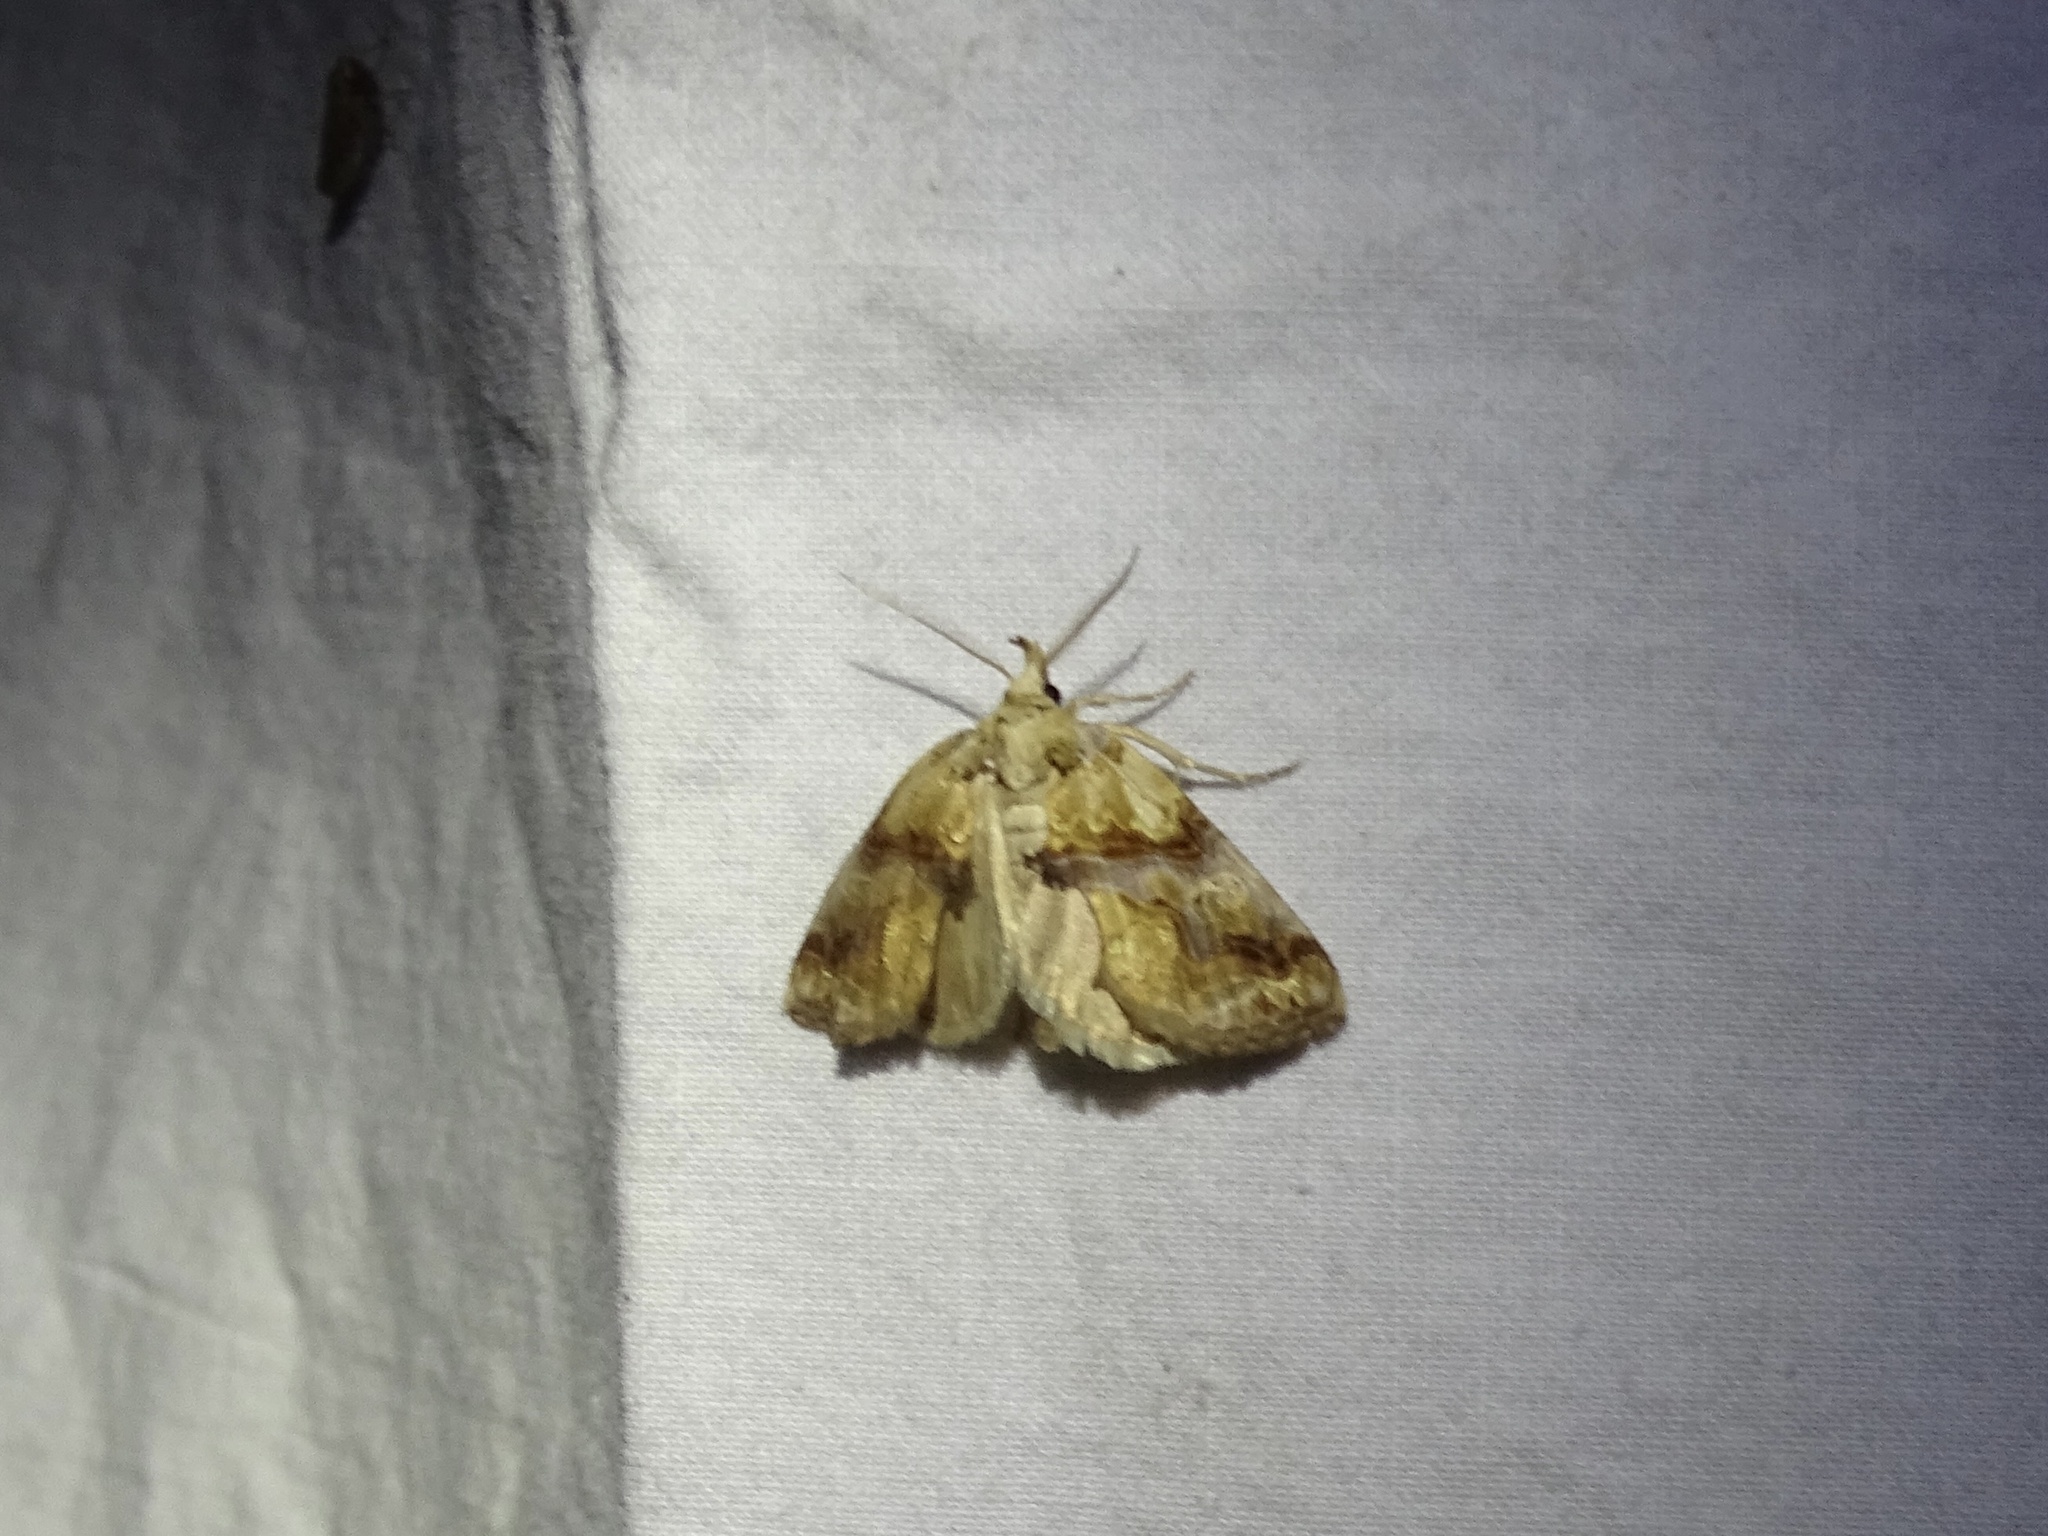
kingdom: Animalia
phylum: Arthropoda
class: Insecta
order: Lepidoptera
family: Erebidae
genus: Plusiodonta
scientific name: Plusiodonta compressipalpis
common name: Moonseed moth
